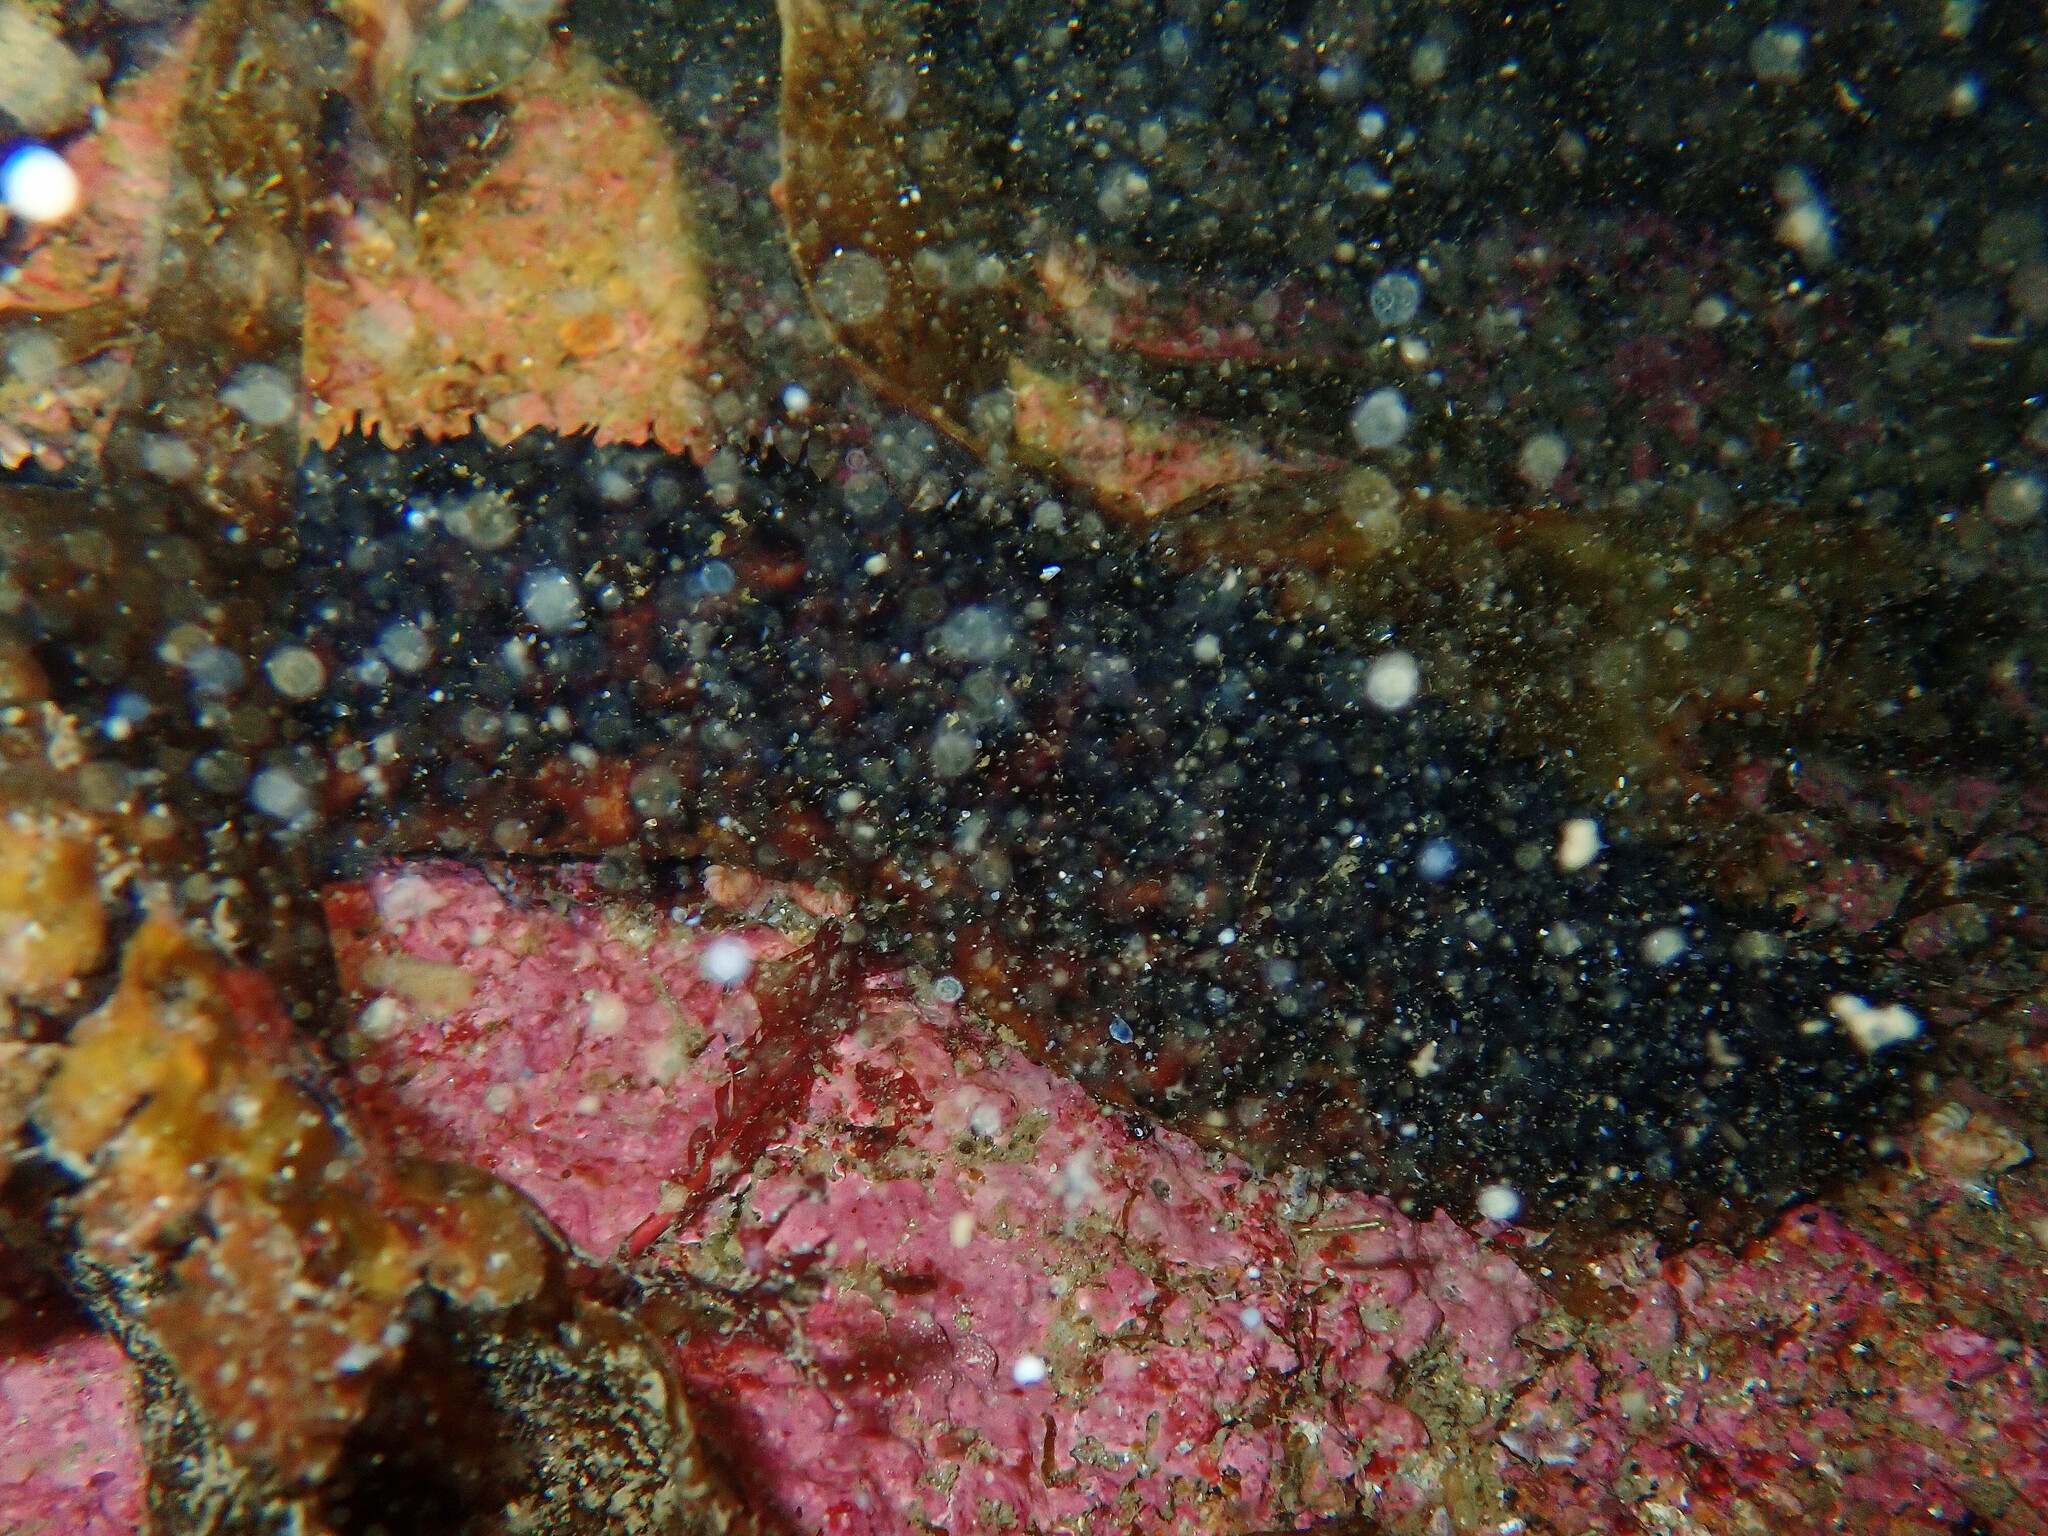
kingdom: Animalia
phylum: Echinodermata
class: Holothuroidea
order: Holothuriida
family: Holothuriidae
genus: Holothuria
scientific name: Holothuria forskali
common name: Black sea cucumber
